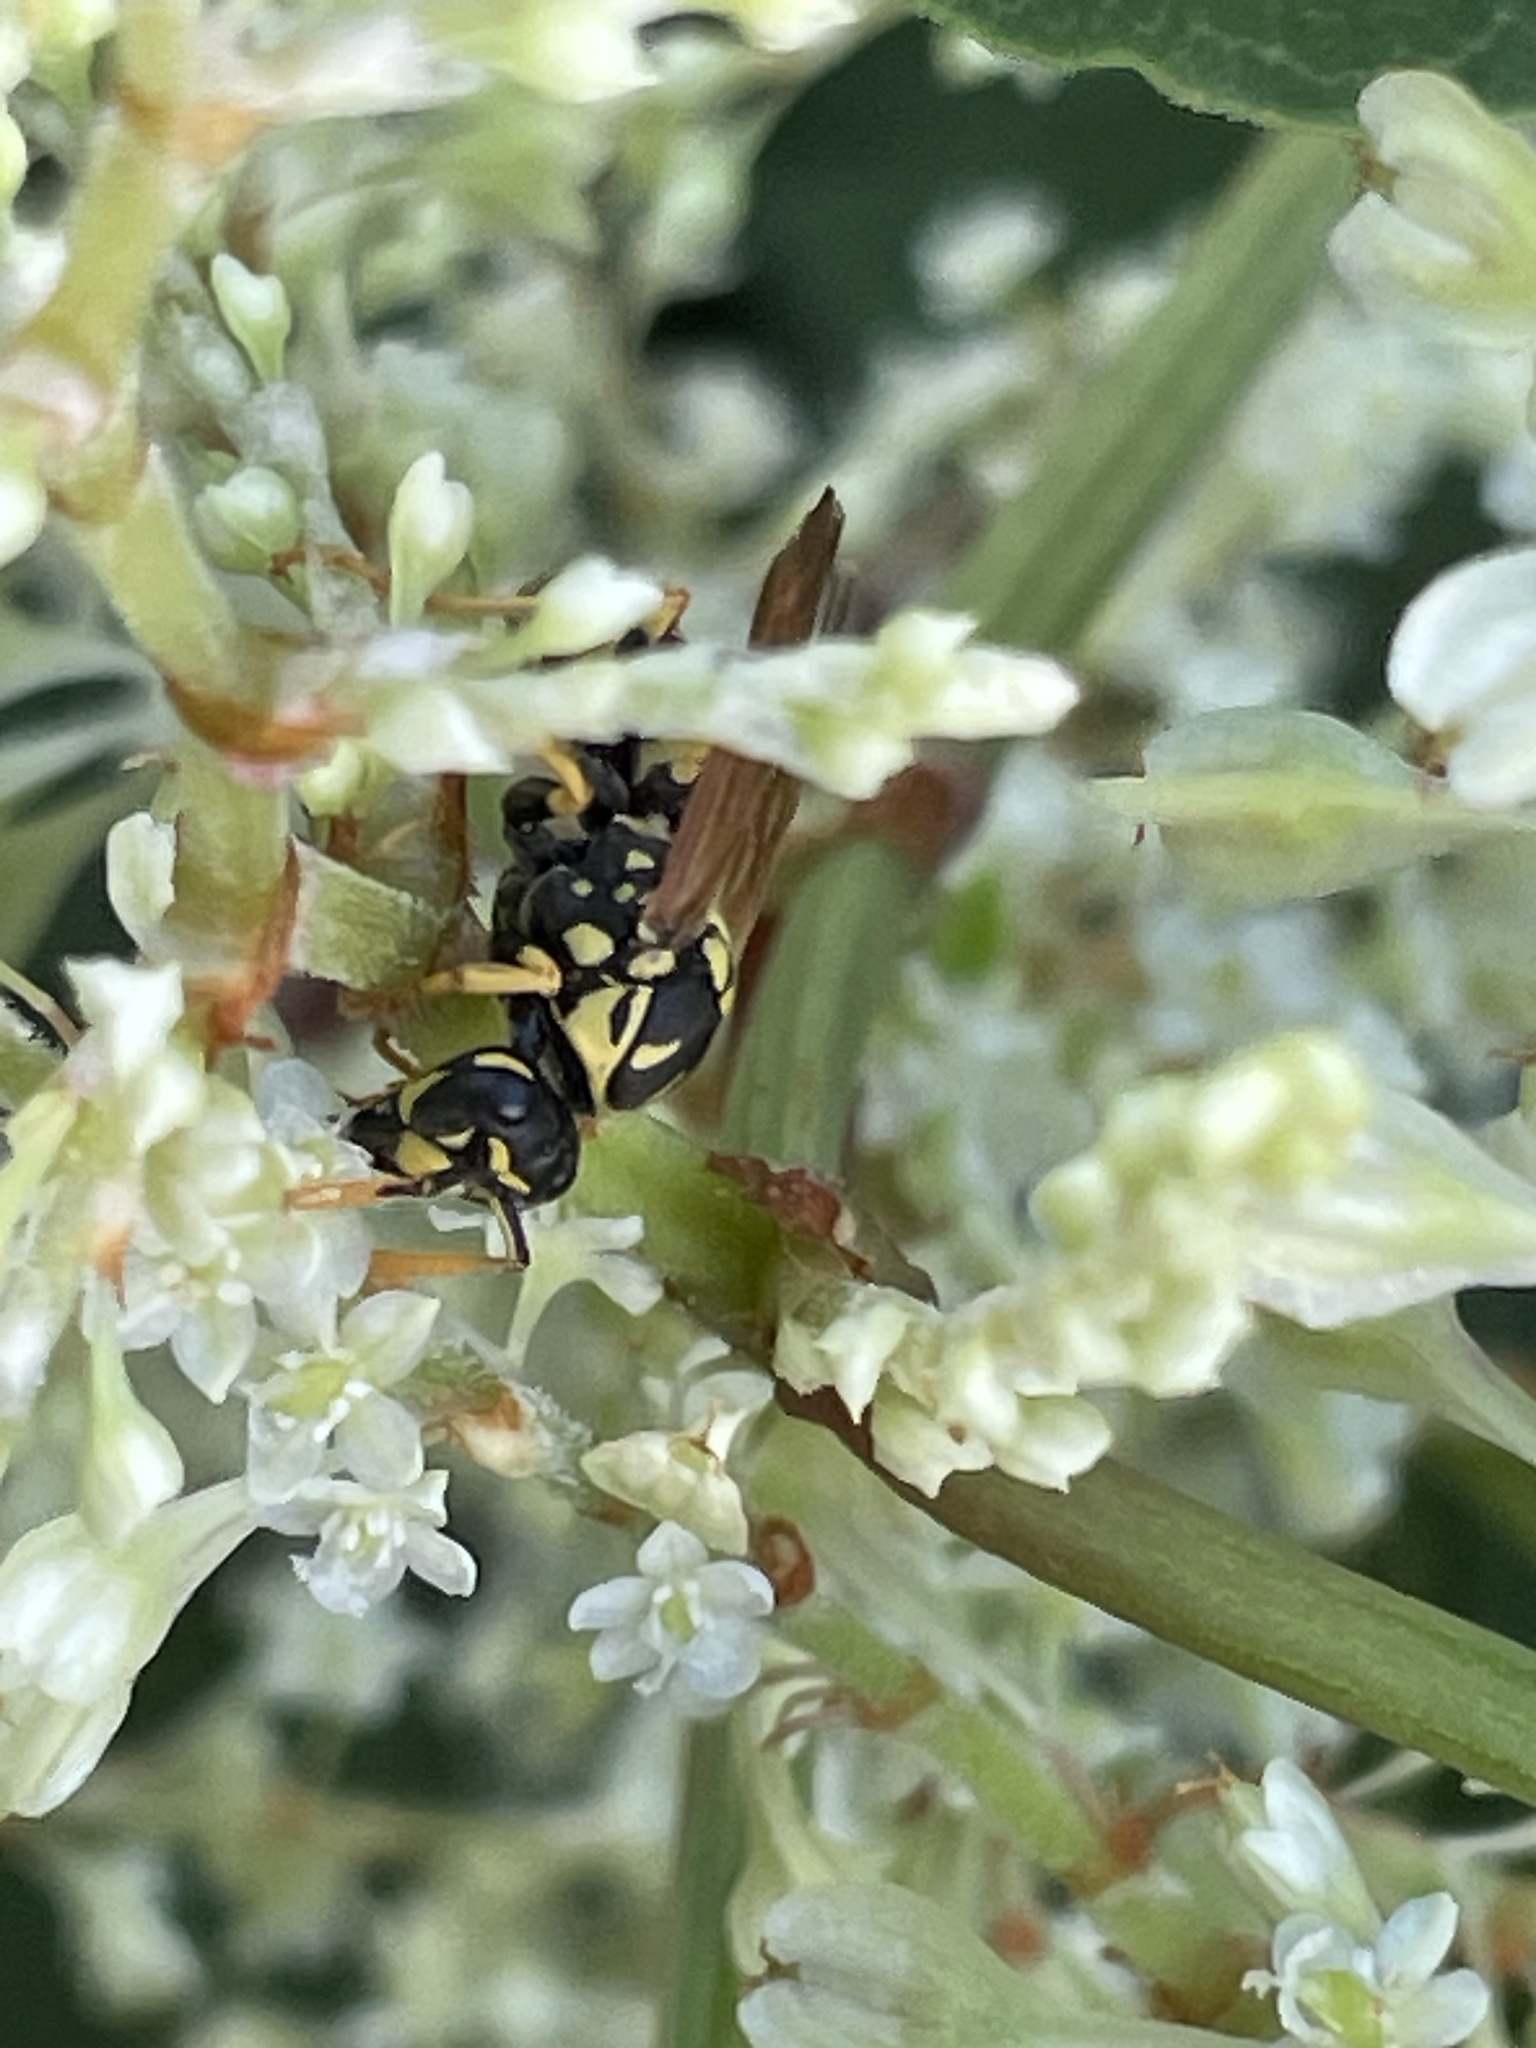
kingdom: Animalia
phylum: Arthropoda
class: Insecta
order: Hymenoptera
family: Eumenidae
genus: Polistes
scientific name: Polistes dominula
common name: Paper wasp
